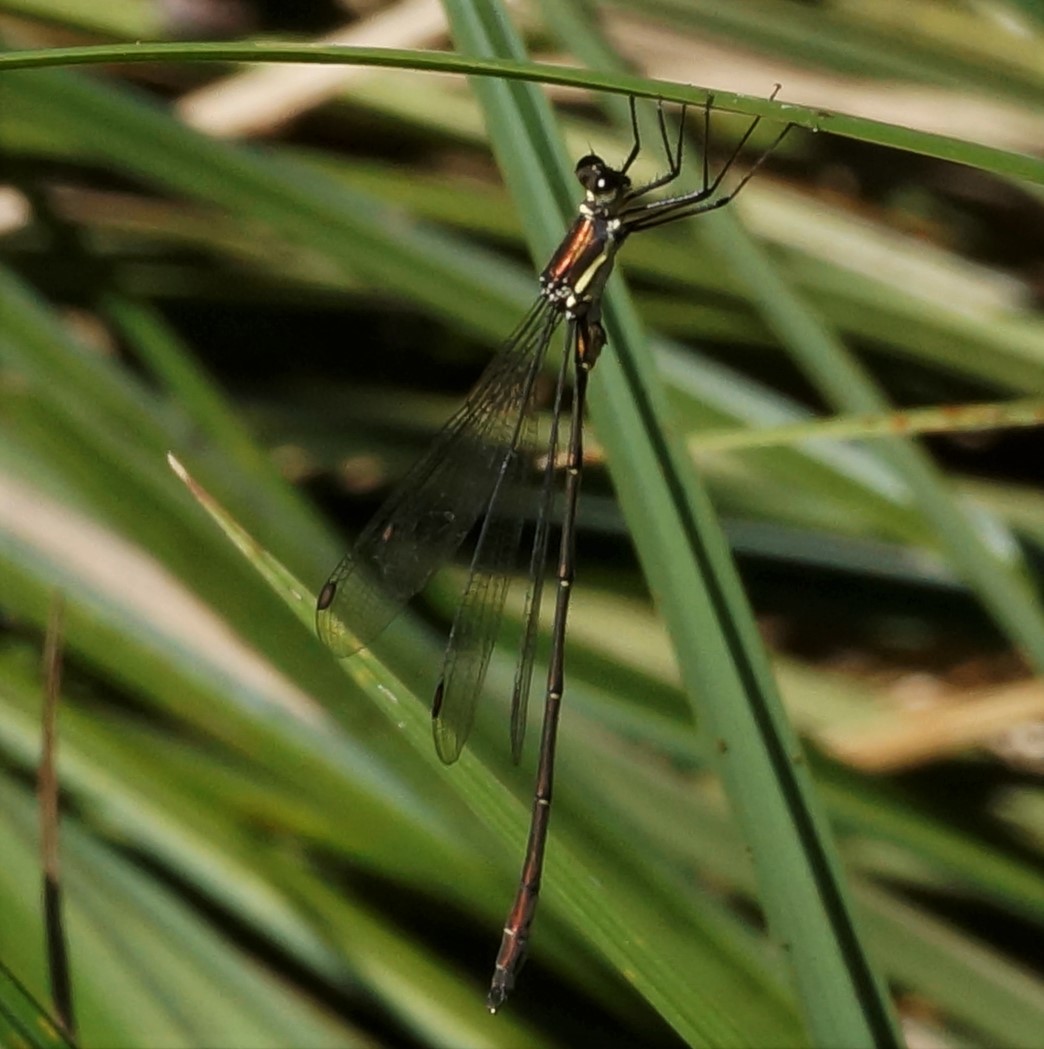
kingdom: Animalia
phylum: Arthropoda
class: Insecta
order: Odonata
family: Synlestidae
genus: Synlestes
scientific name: Synlestes weyersii
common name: Bronze needle
